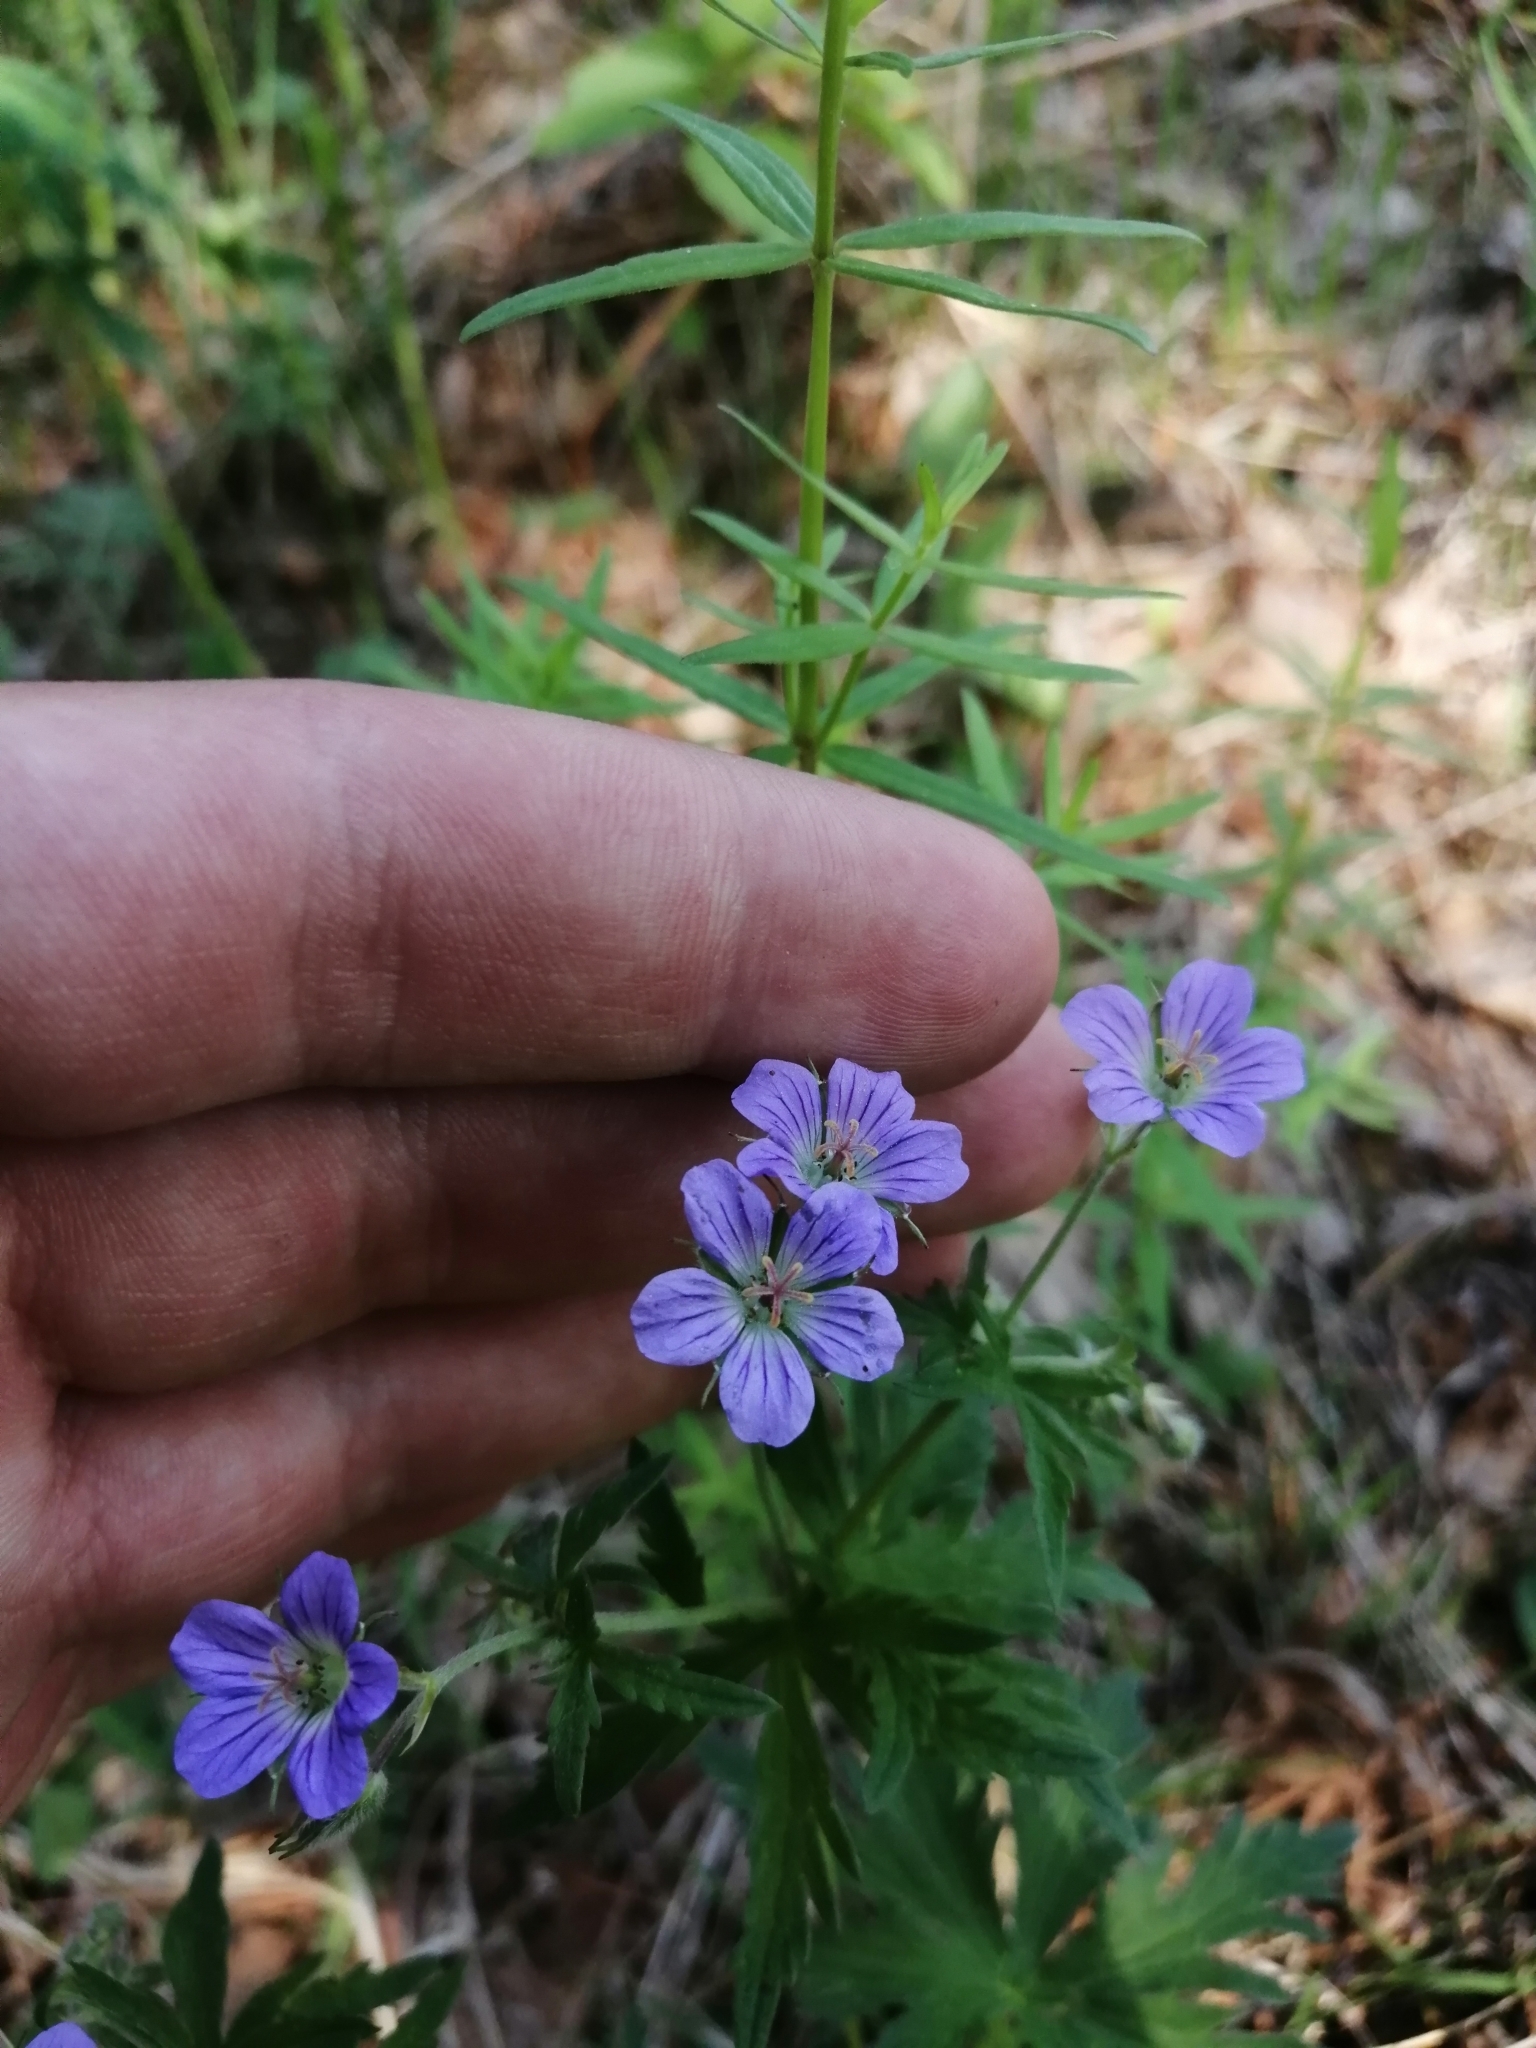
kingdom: Plantae
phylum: Tracheophyta
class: Magnoliopsida
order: Geraniales
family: Geraniaceae
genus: Geranium
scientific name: Geranium pseudosibiricum
